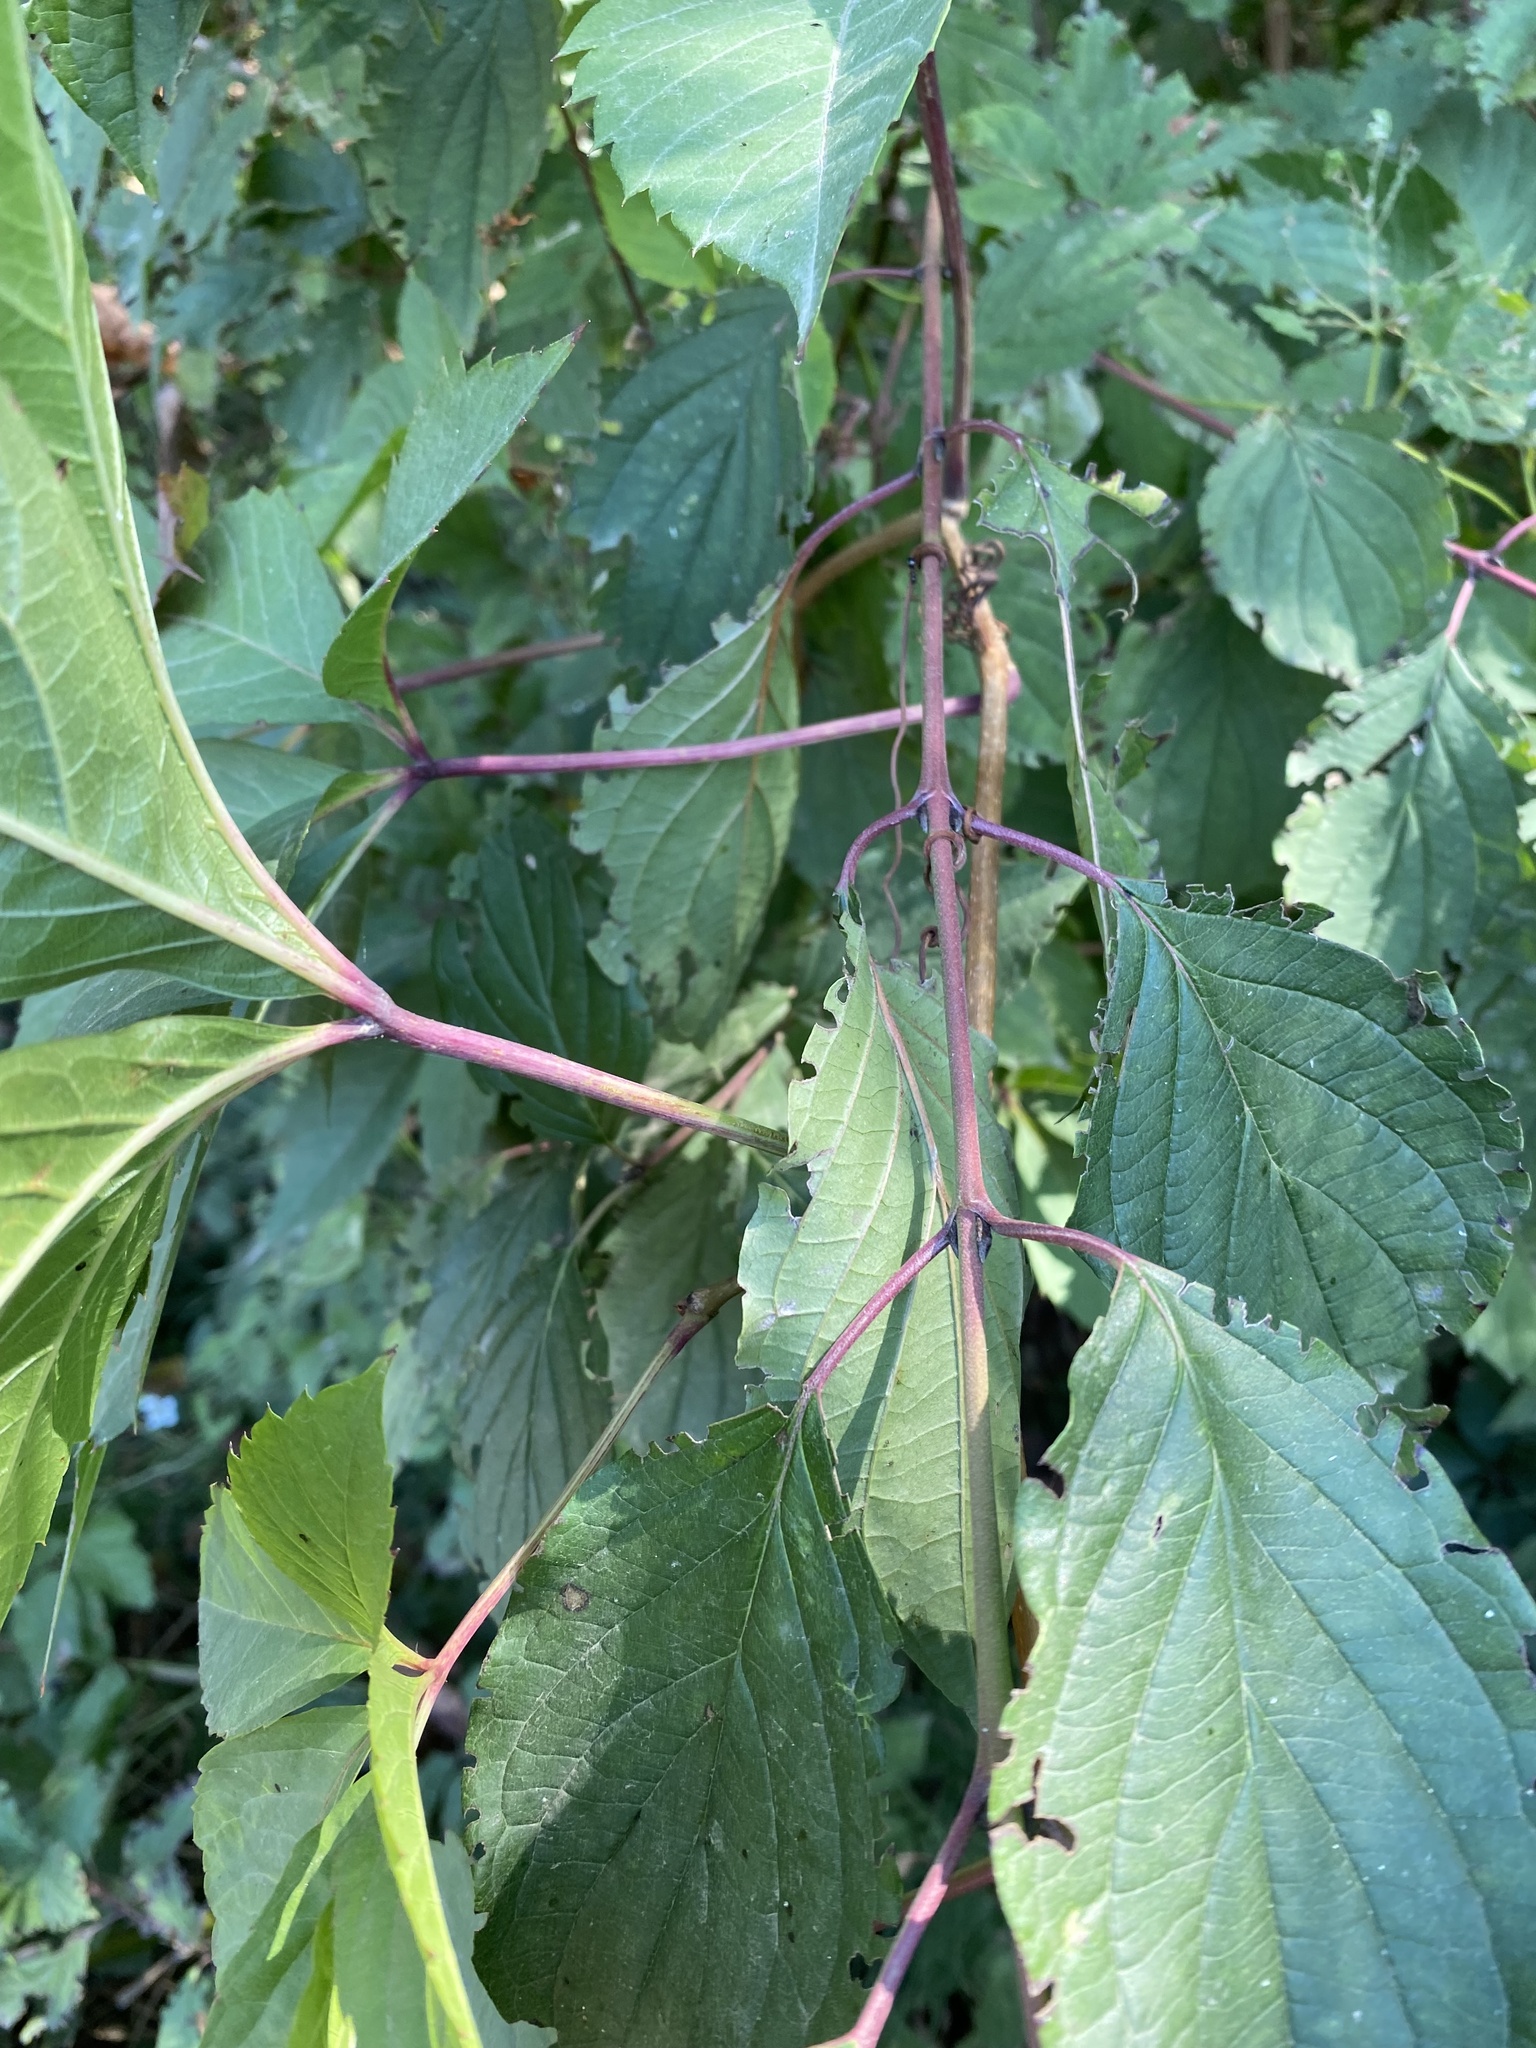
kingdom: Plantae
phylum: Tracheophyta
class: Magnoliopsida
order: Vitales
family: Vitaceae
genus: Parthenocissus
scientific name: Parthenocissus inserta
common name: False virginia-creeper
